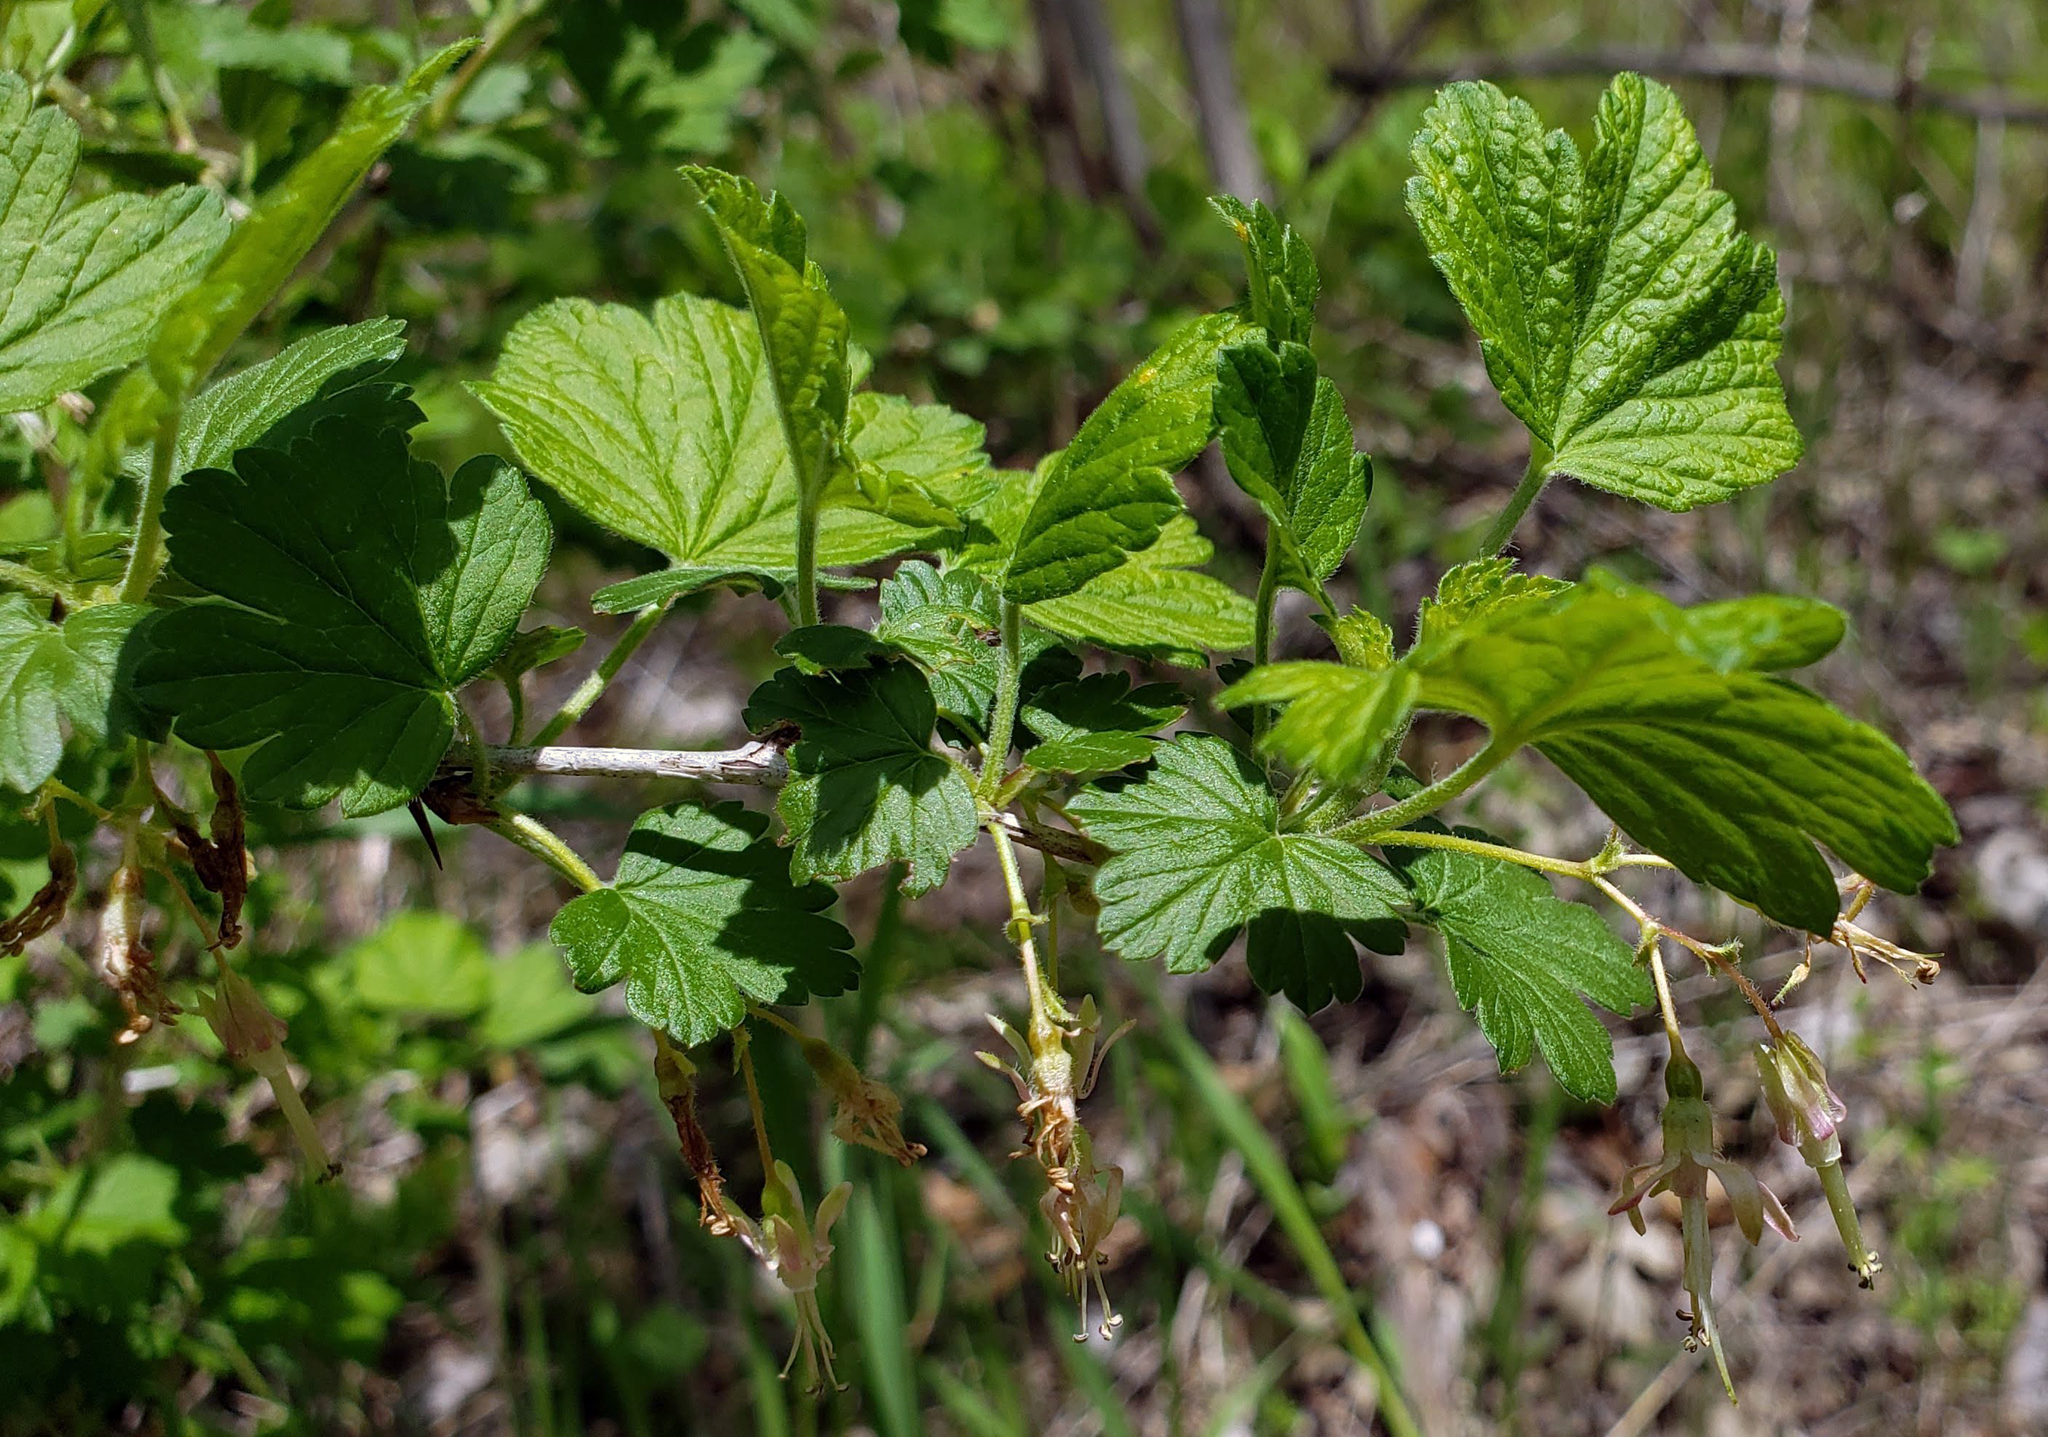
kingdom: Plantae
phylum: Tracheophyta
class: Magnoliopsida
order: Saxifragales
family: Grossulariaceae
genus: Ribes
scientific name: Ribes missouriense
